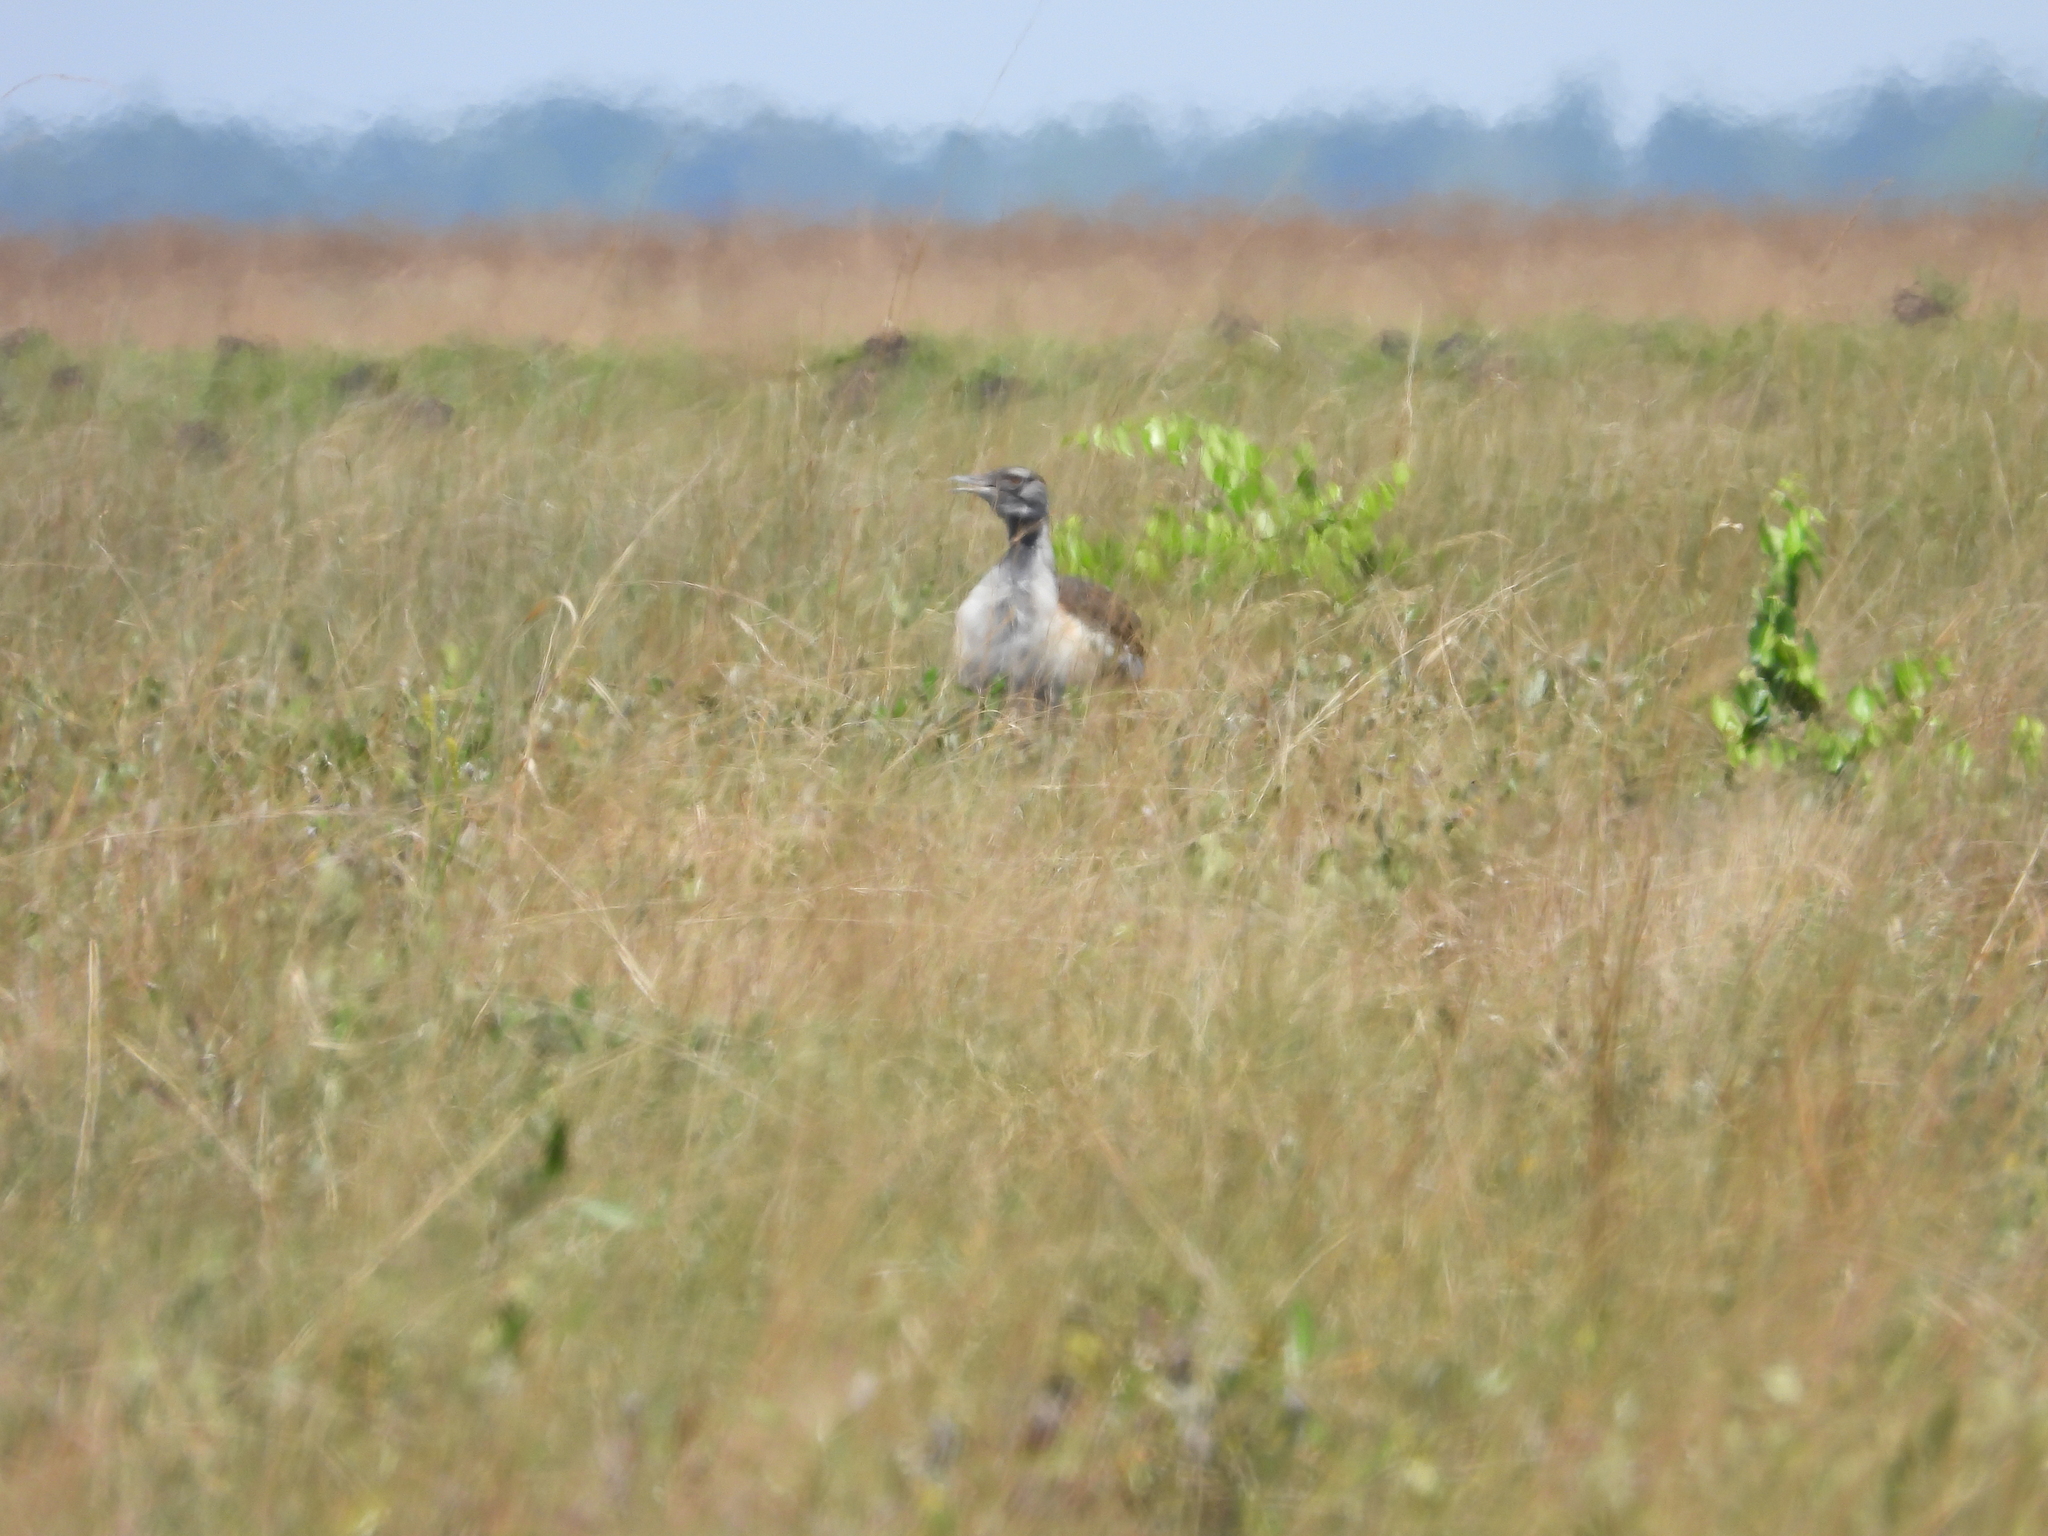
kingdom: Animalia
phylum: Chordata
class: Aves
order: Otidiformes
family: Otididae
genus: Neotis
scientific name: Neotis denhami
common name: Denham's bustard
